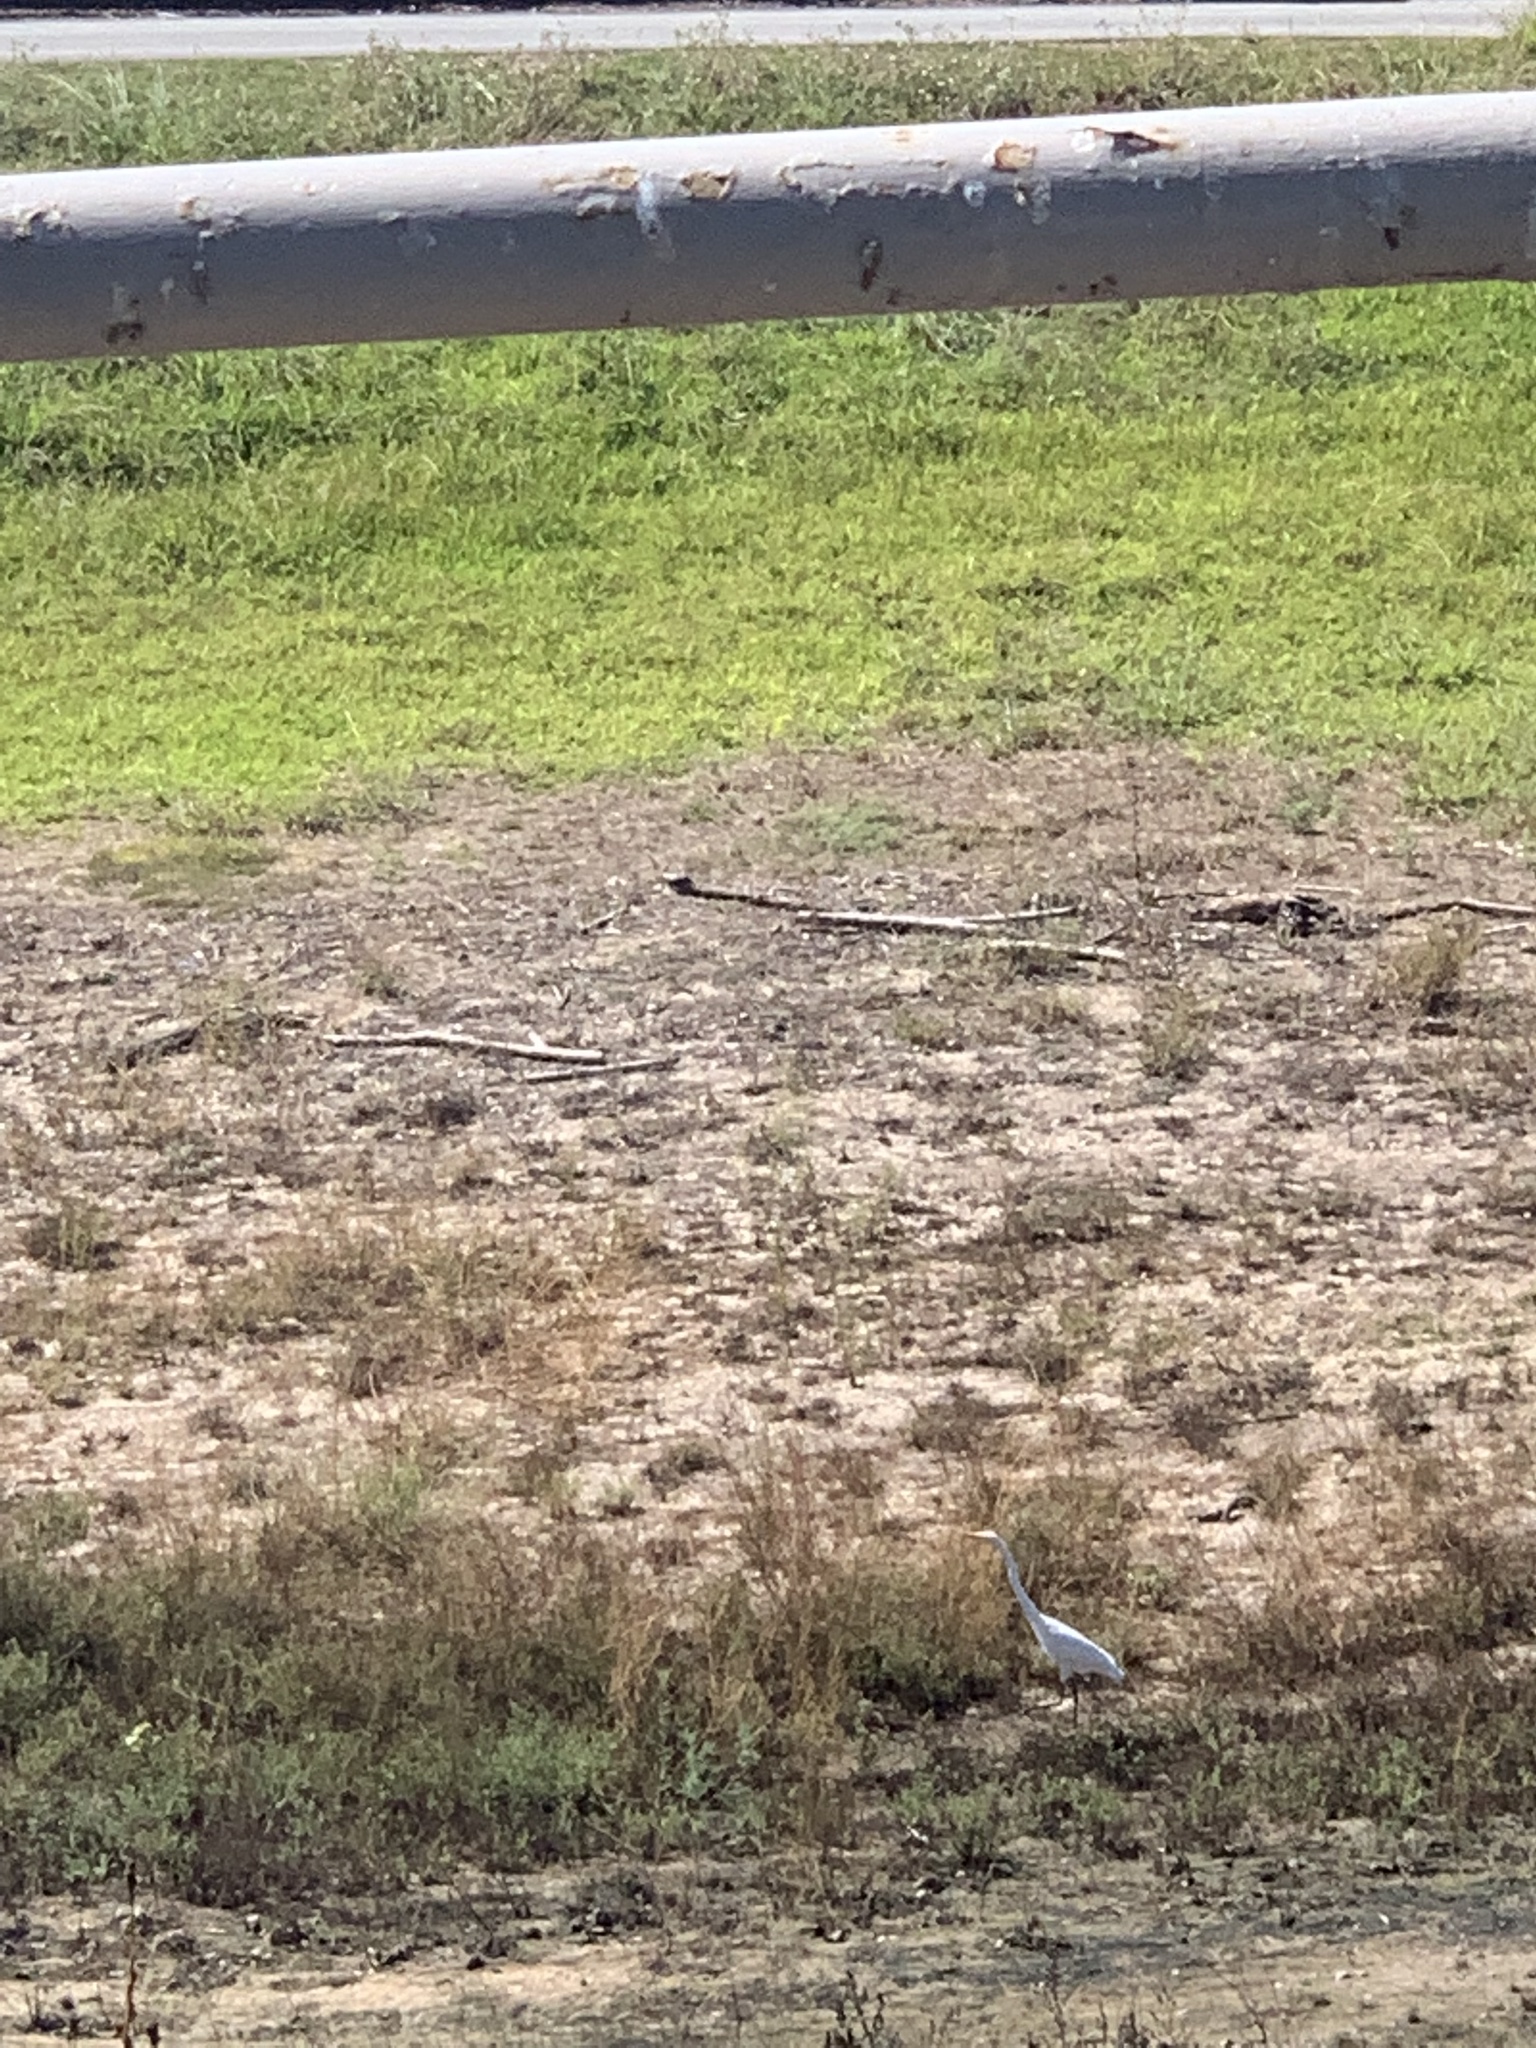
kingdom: Animalia
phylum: Chordata
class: Aves
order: Pelecaniformes
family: Ardeidae
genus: Ardea
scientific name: Ardea alba
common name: Great egret
